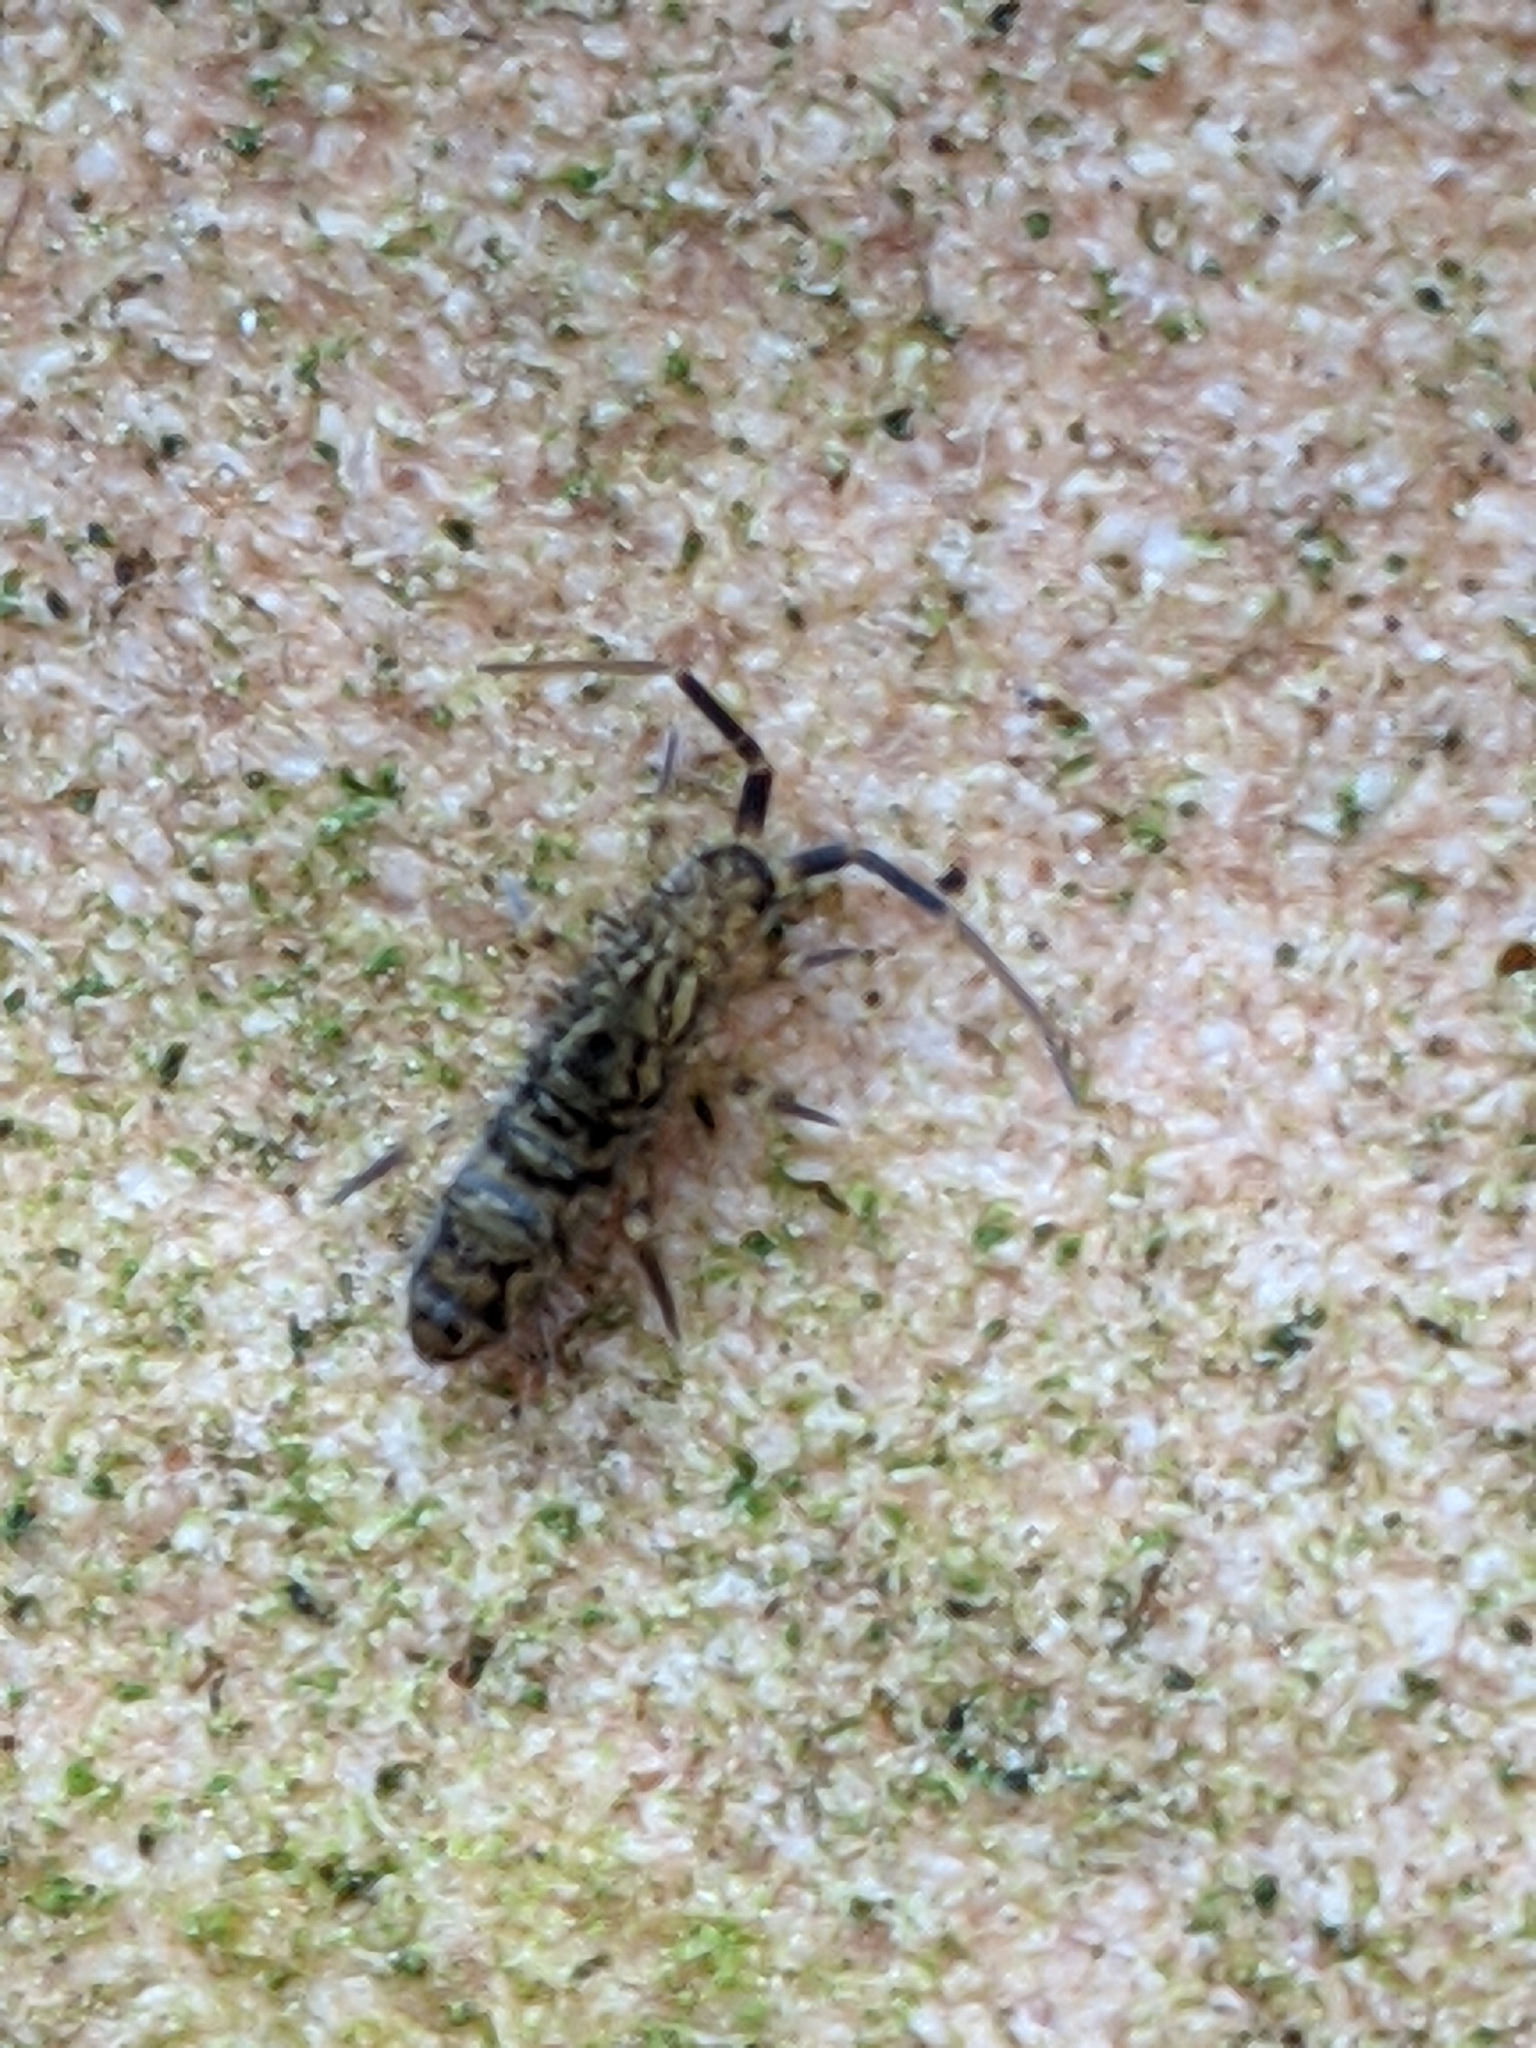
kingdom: Animalia
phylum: Arthropoda
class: Collembola
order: Entomobryomorpha
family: Orchesellidae
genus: Orchesella
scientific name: Orchesella villosa
